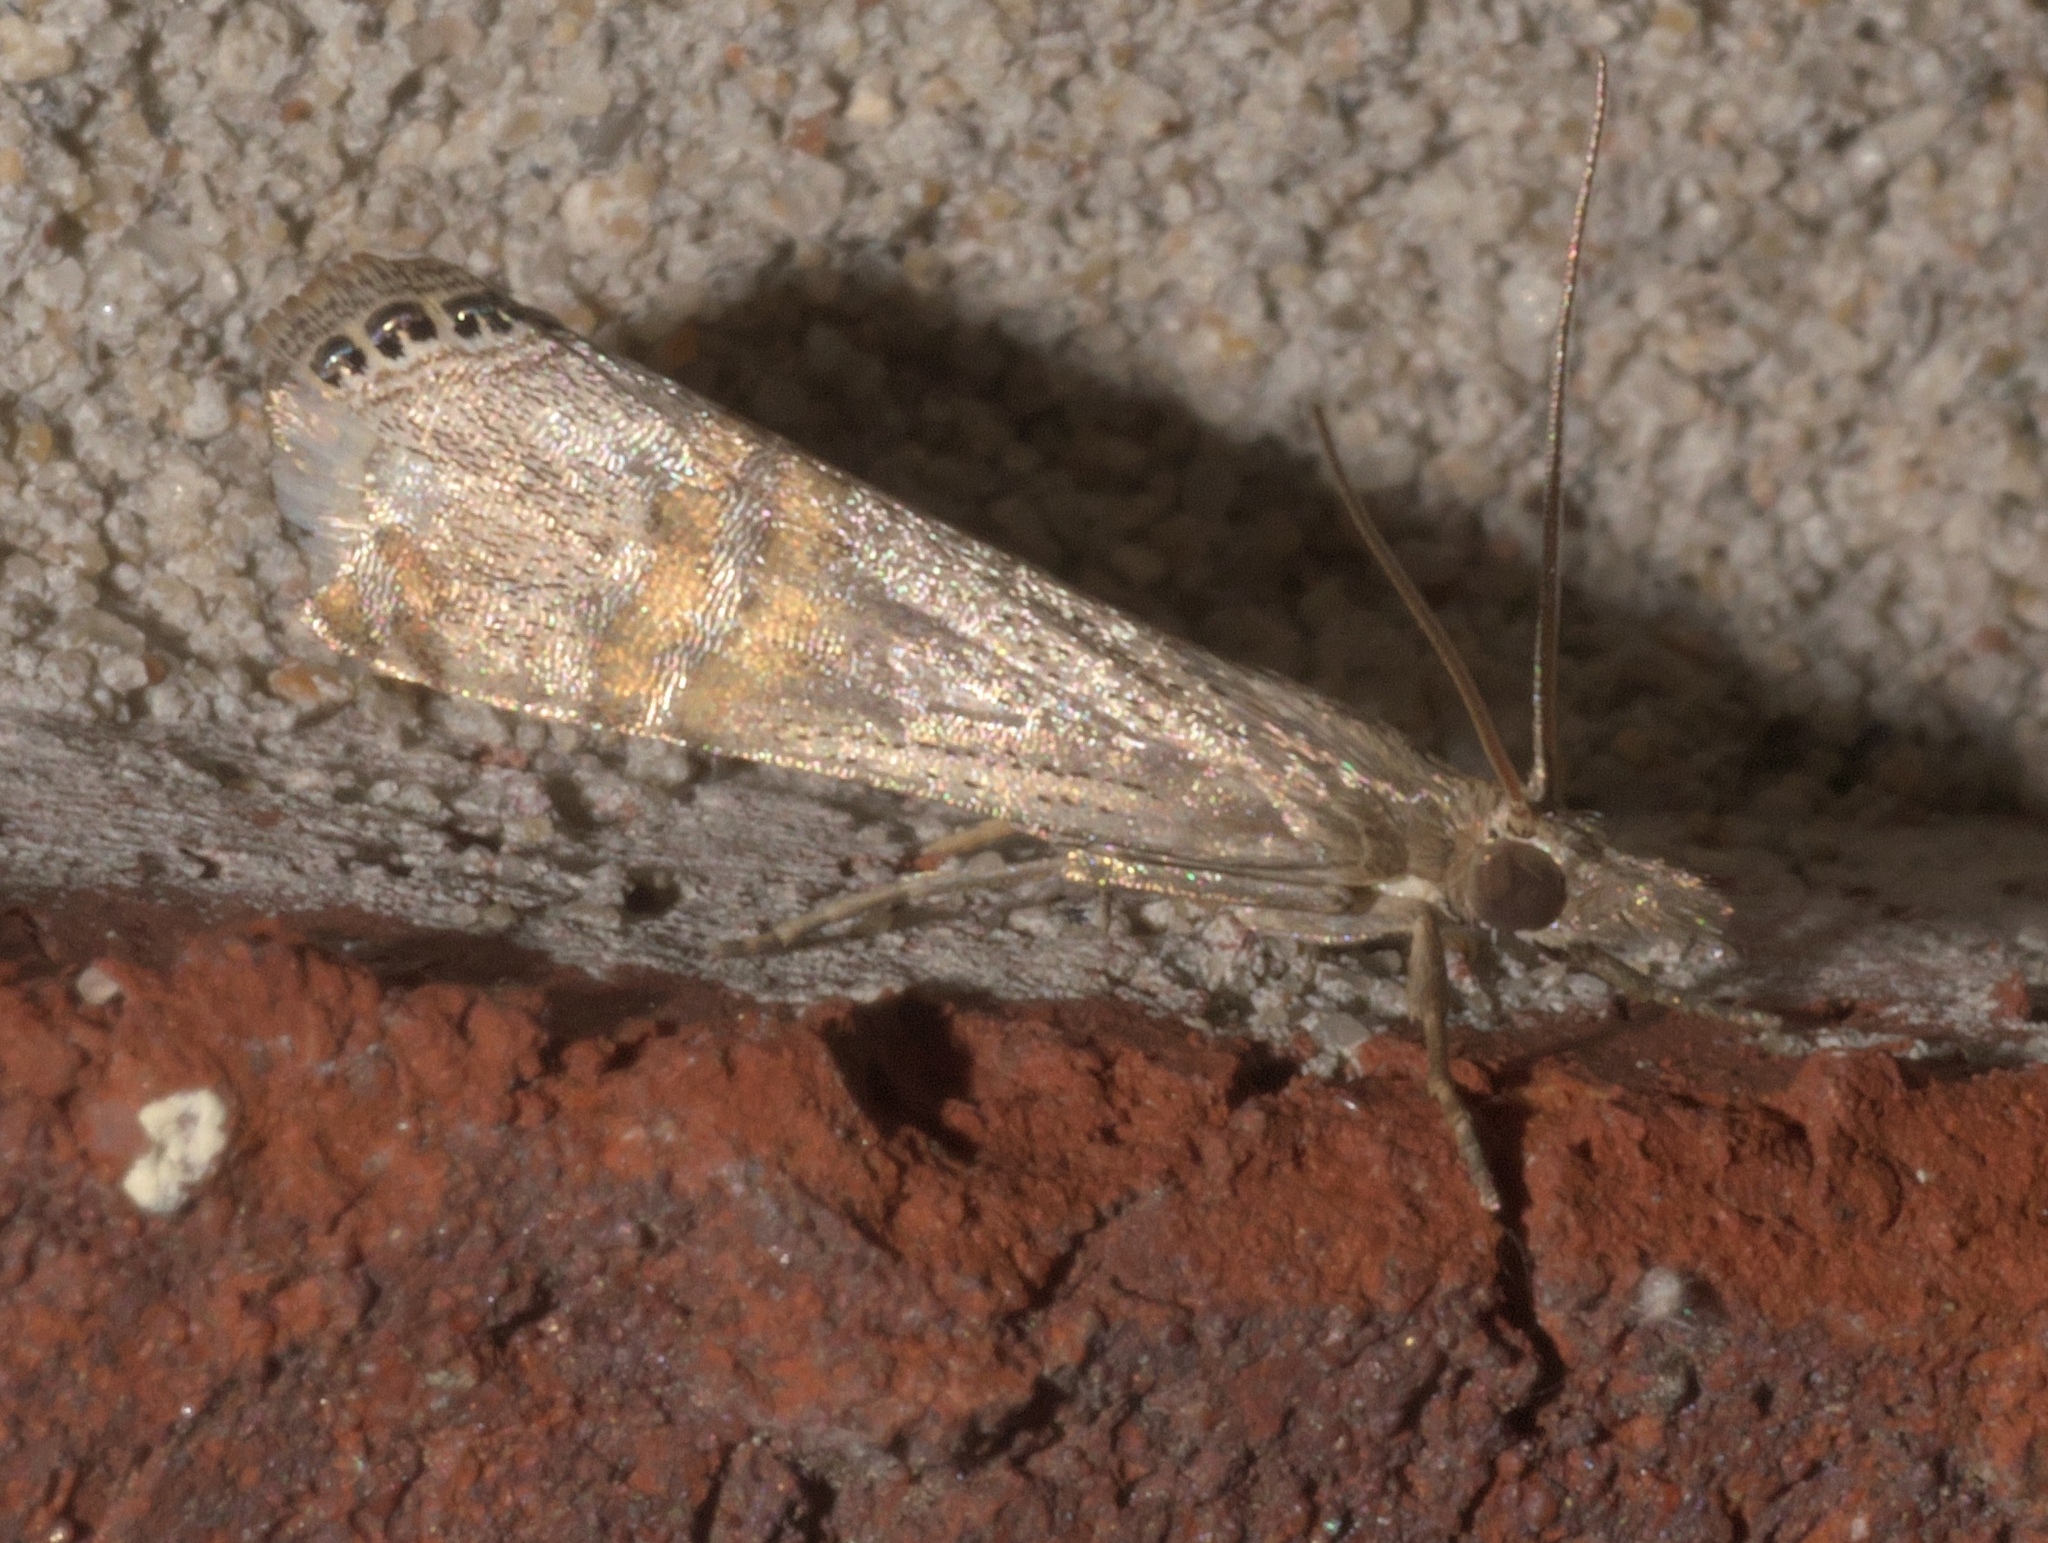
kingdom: Animalia
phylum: Arthropoda
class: Insecta
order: Lepidoptera
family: Crambidae
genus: Euchromius
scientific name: Euchromius ocellea
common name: Necklace veneer moth
